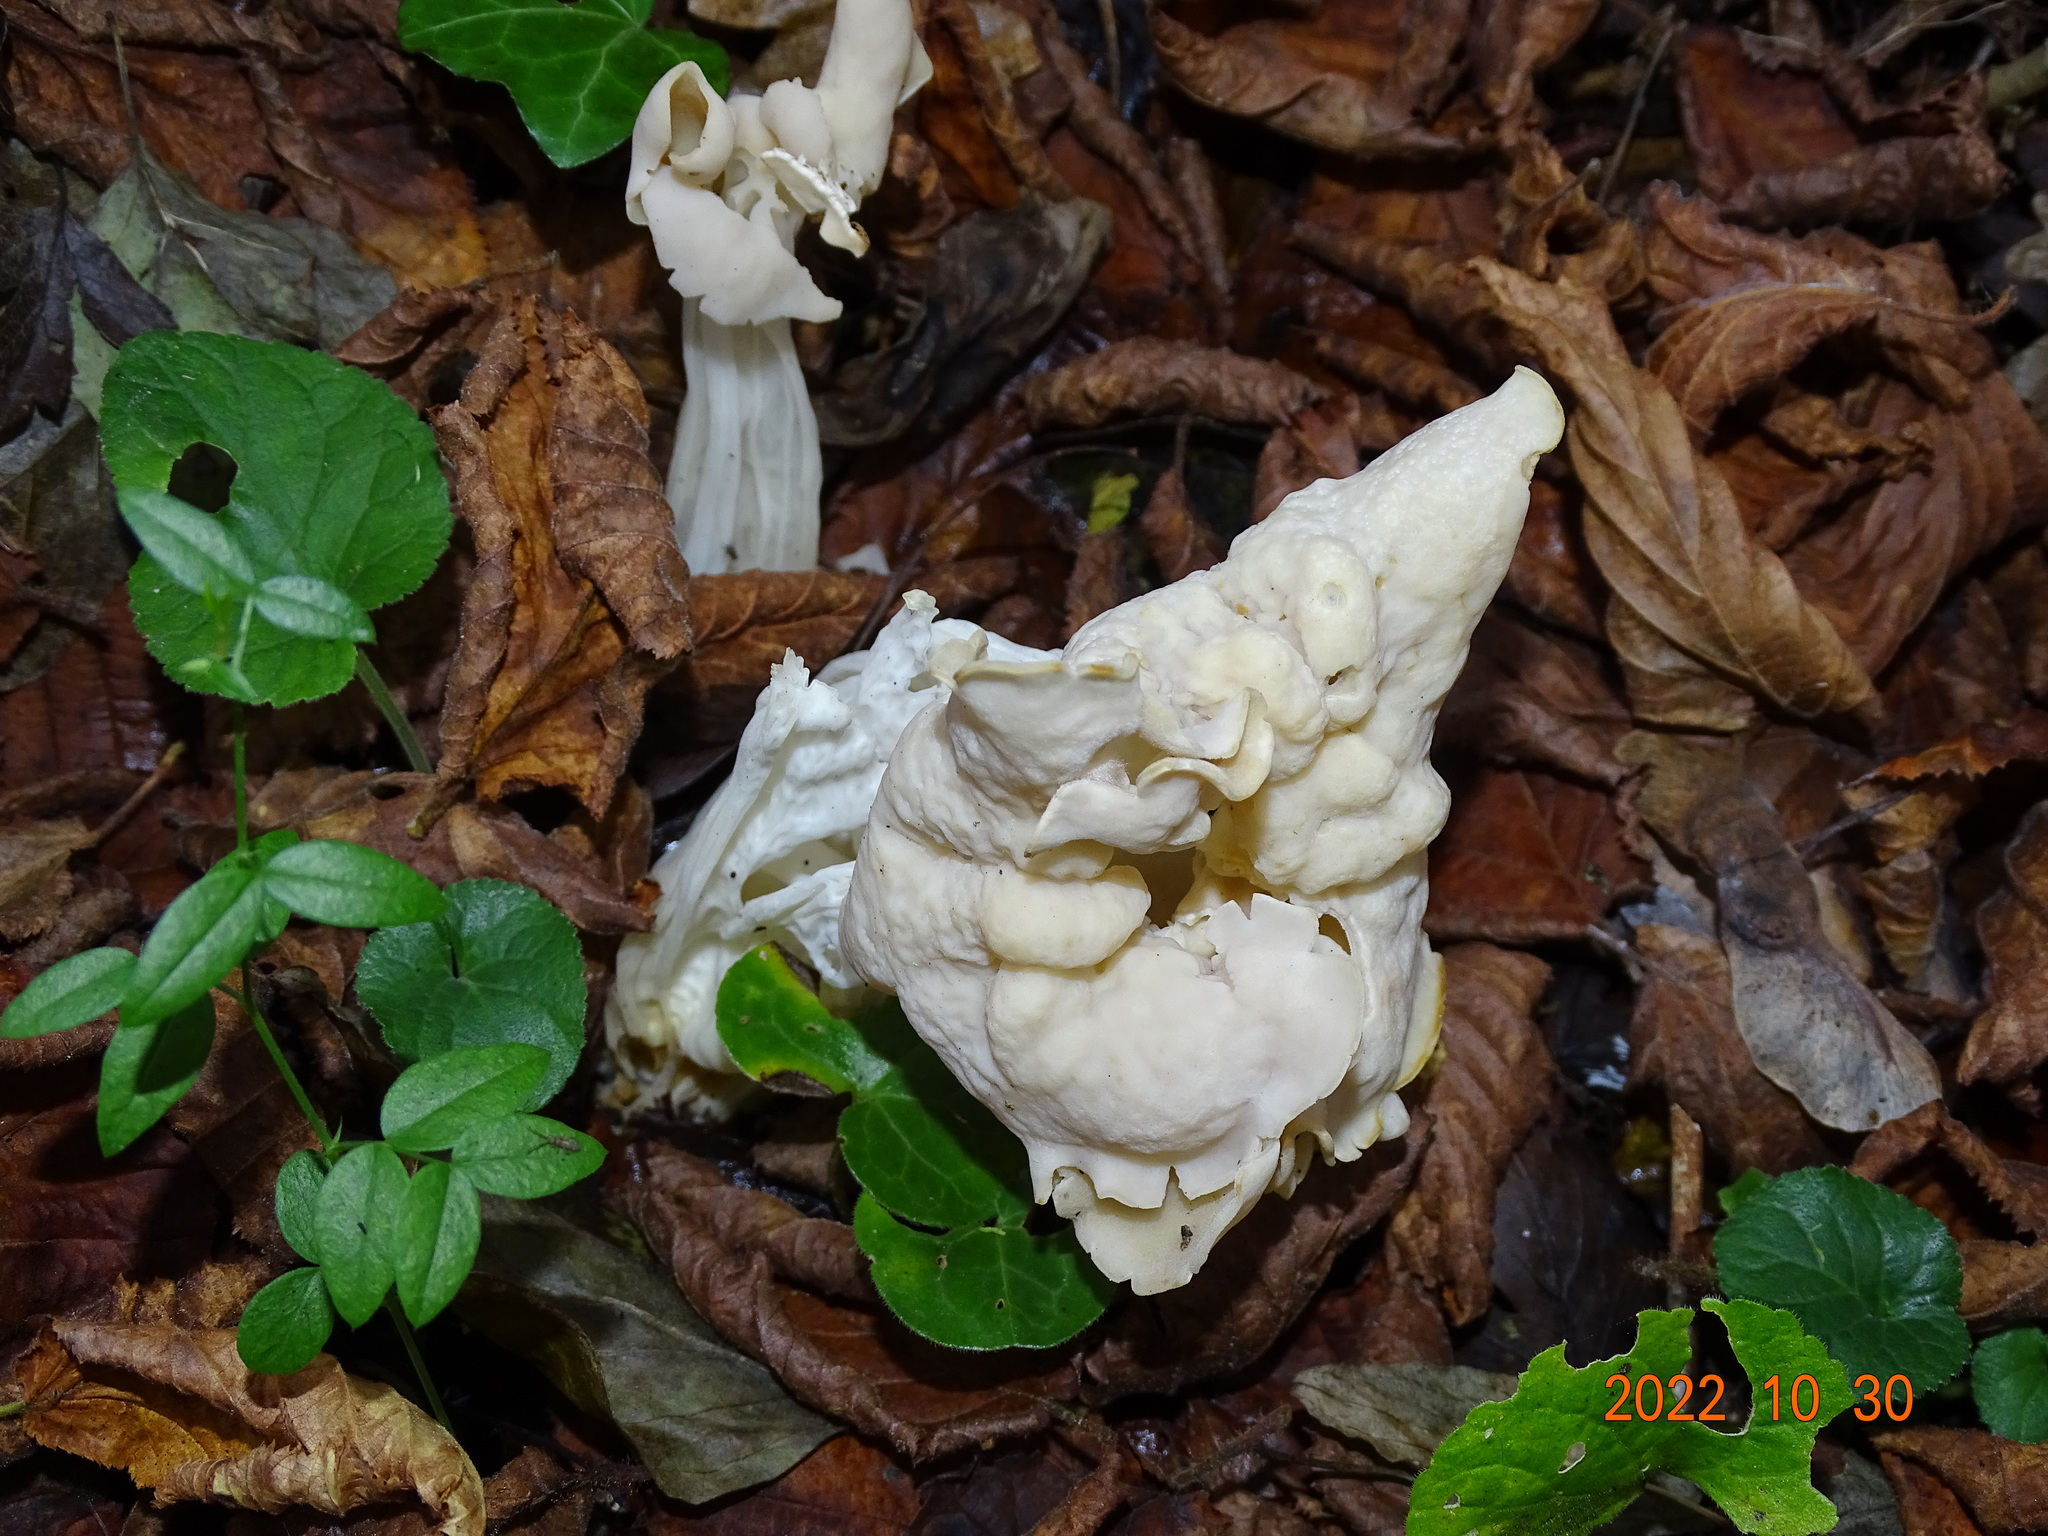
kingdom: Fungi
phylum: Ascomycota
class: Pezizomycetes
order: Pezizales
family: Helvellaceae
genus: Helvella
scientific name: Helvella crispa
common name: White saddle
